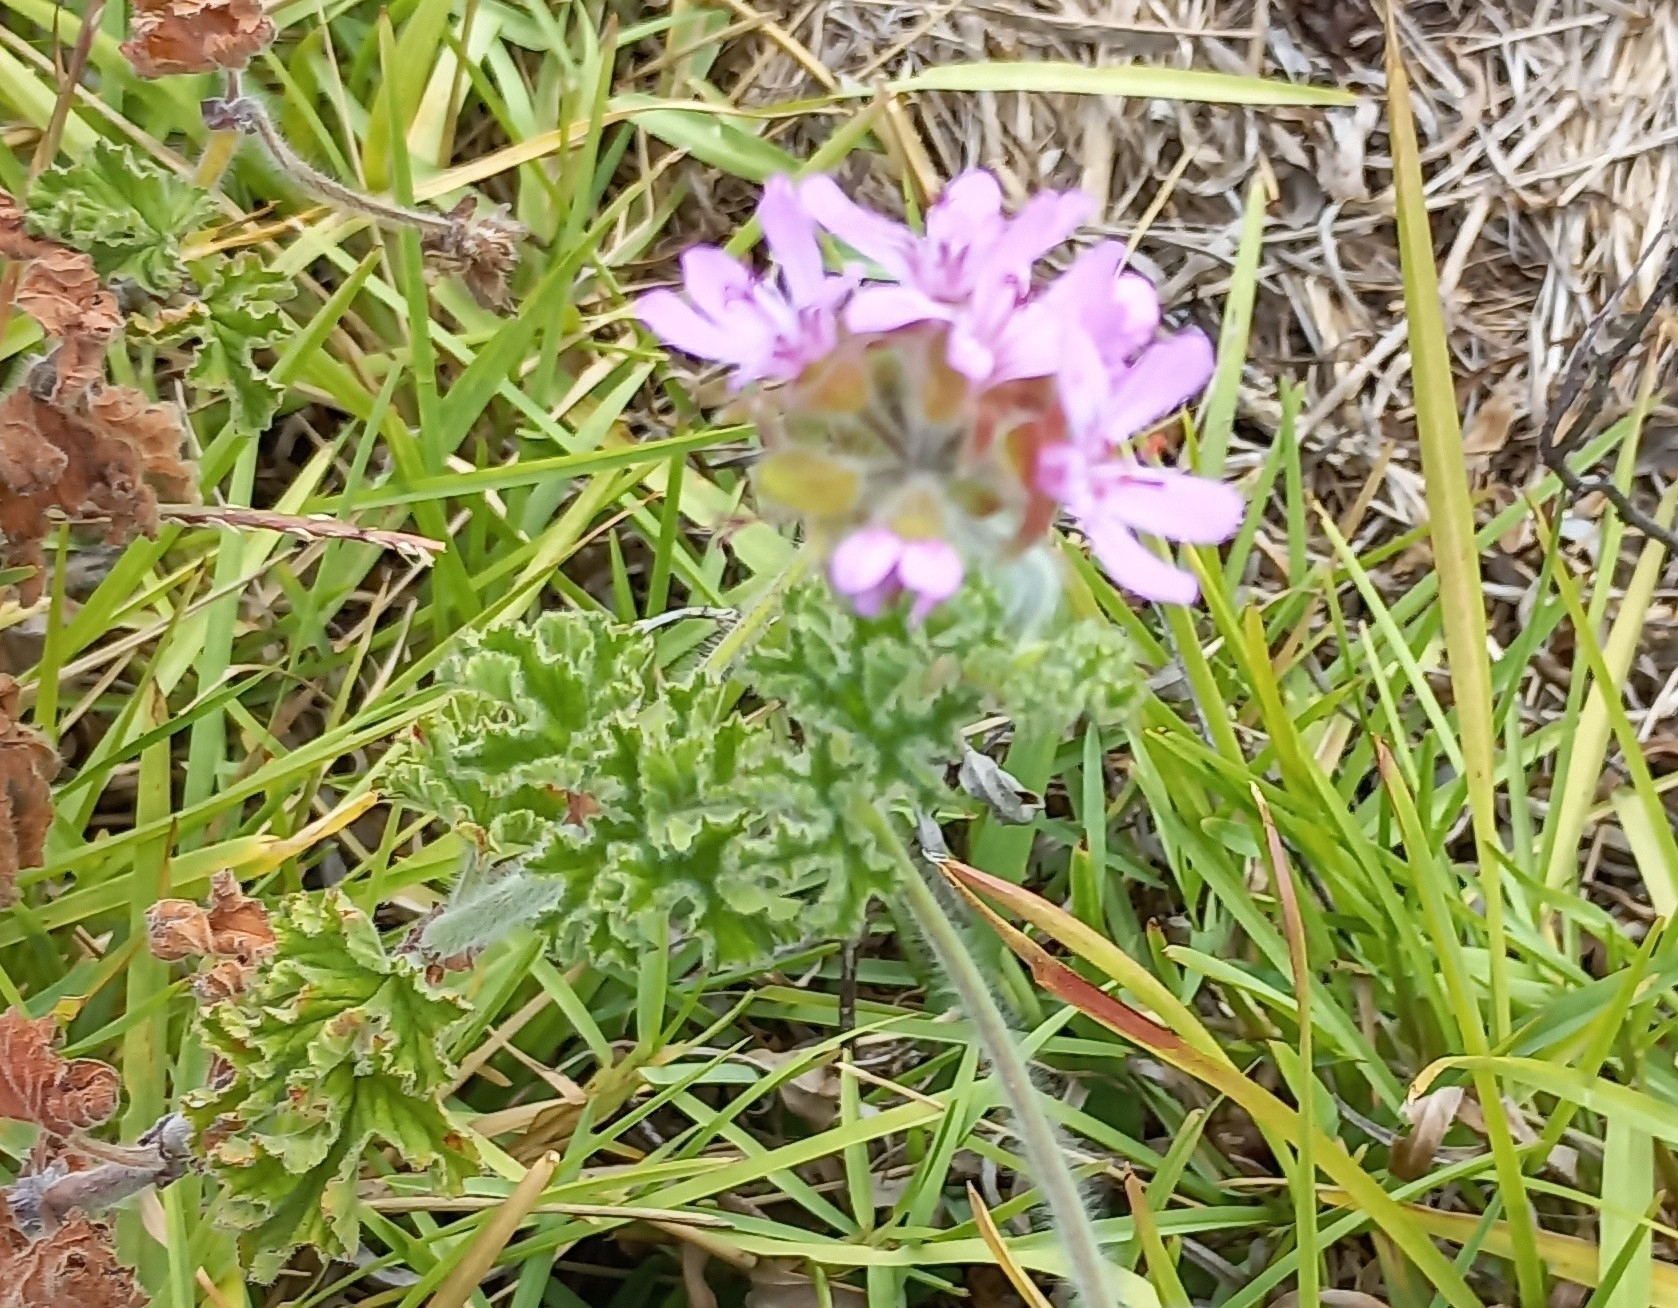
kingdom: Plantae
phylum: Tracheophyta
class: Magnoliopsida
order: Geraniales
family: Geraniaceae
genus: Pelargonium
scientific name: Pelargonium capitatum
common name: Rose scented geranium
